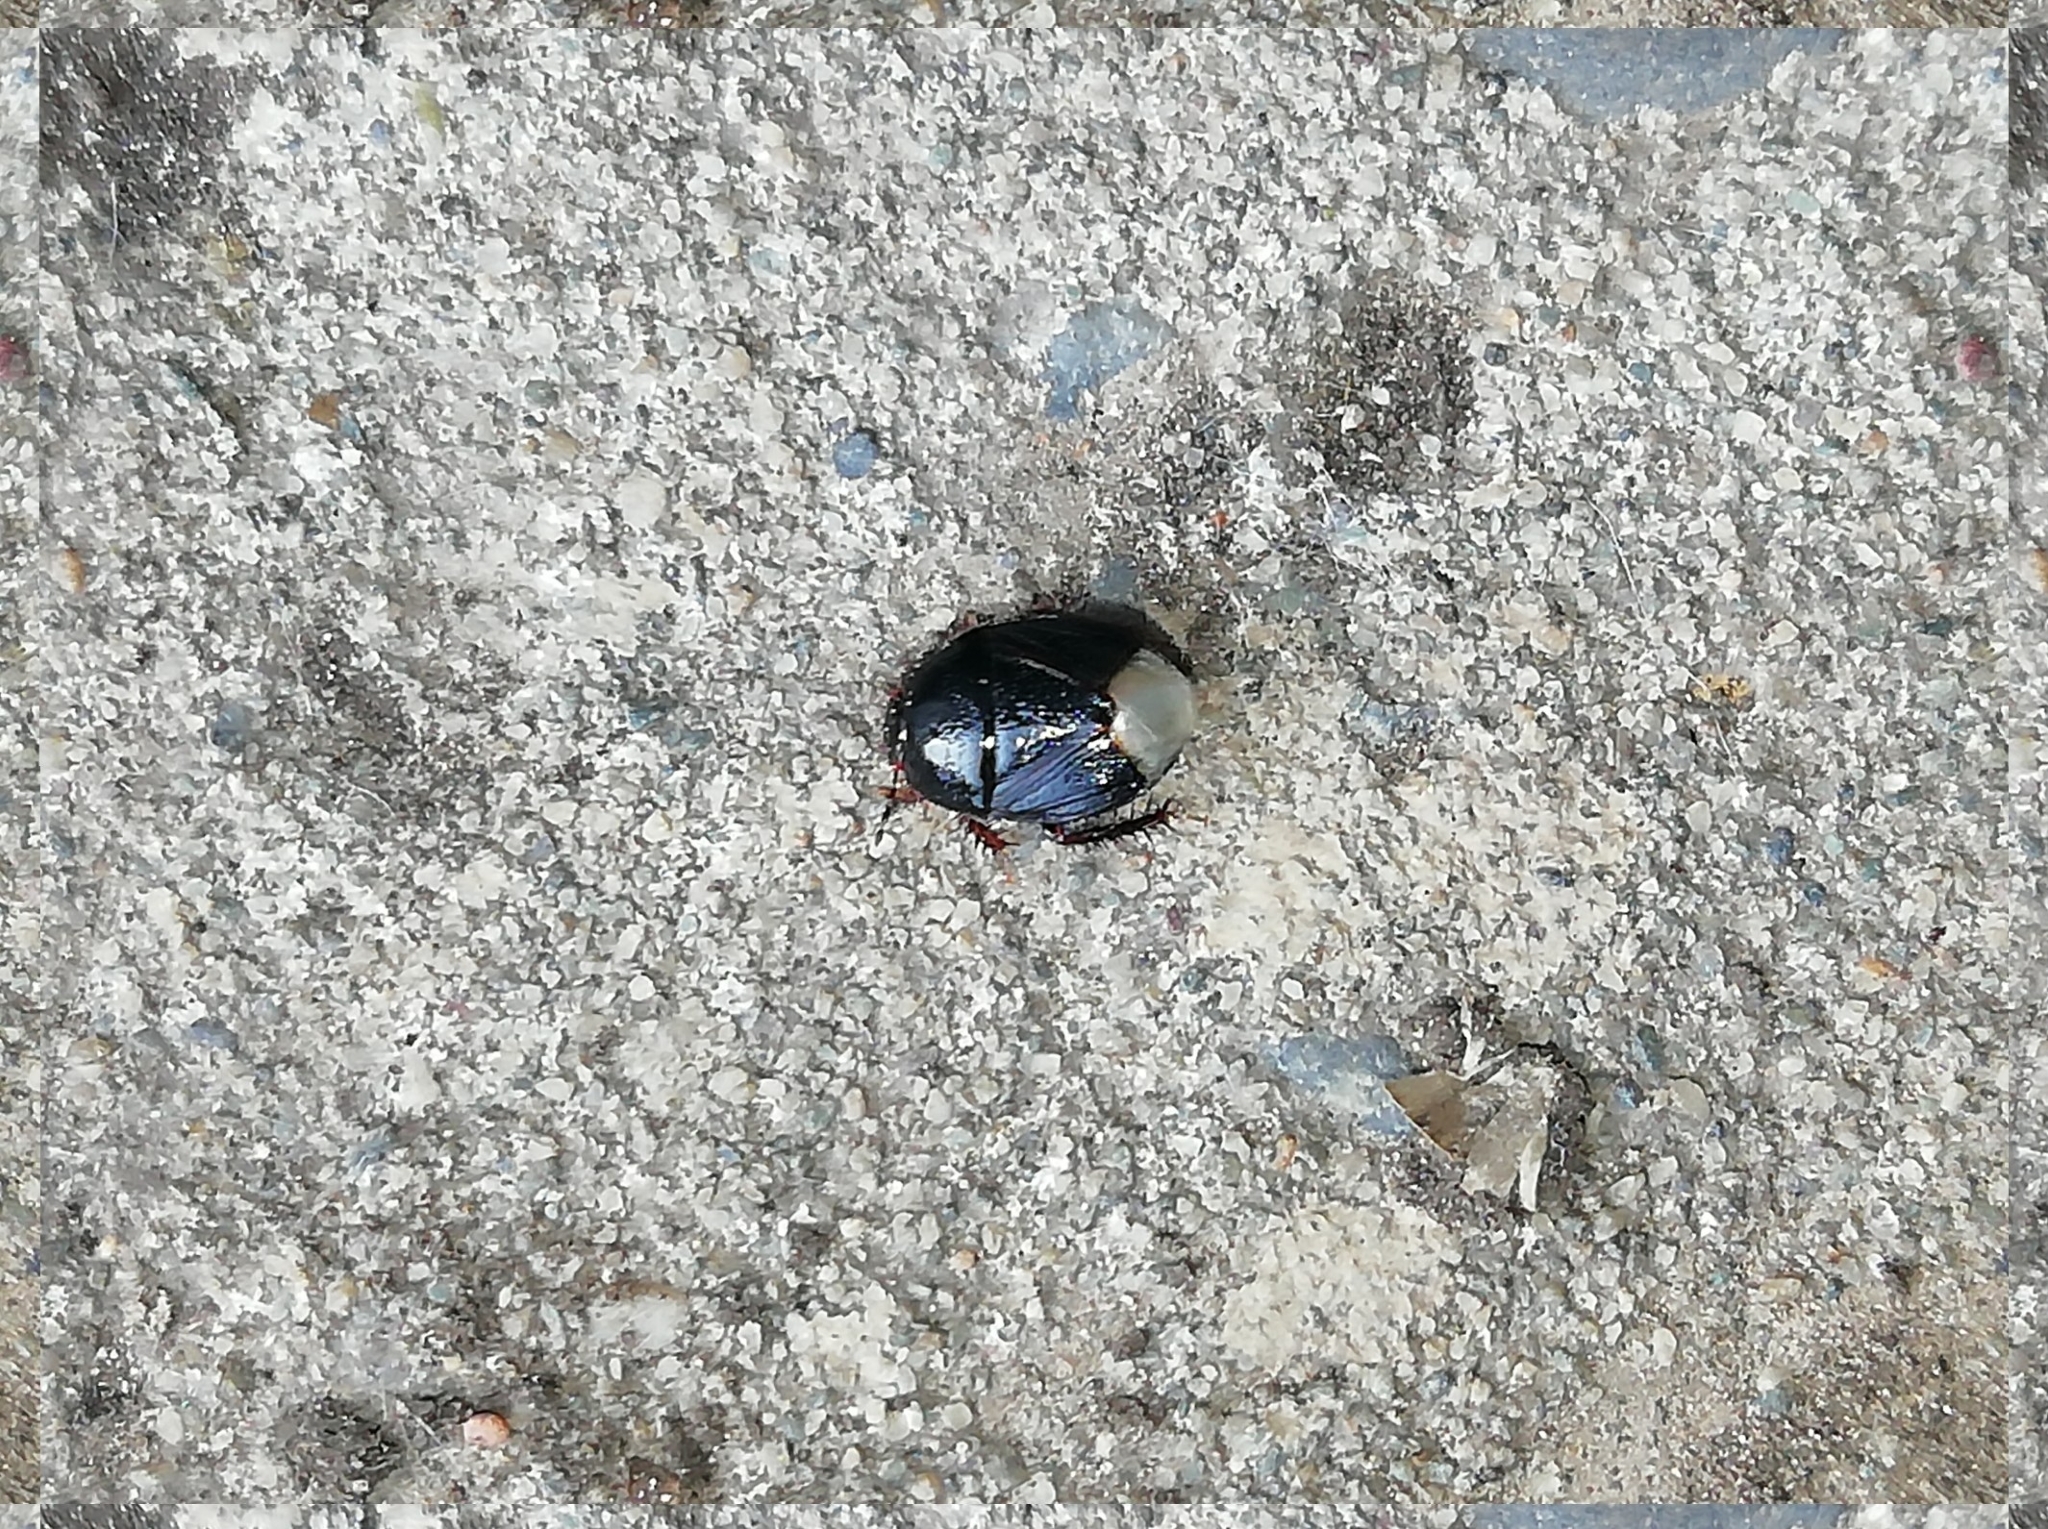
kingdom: Animalia
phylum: Arthropoda
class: Insecta
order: Hemiptera
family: Cydnidae
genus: Microporus
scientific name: Microporus nigrita
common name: Burrower bug
